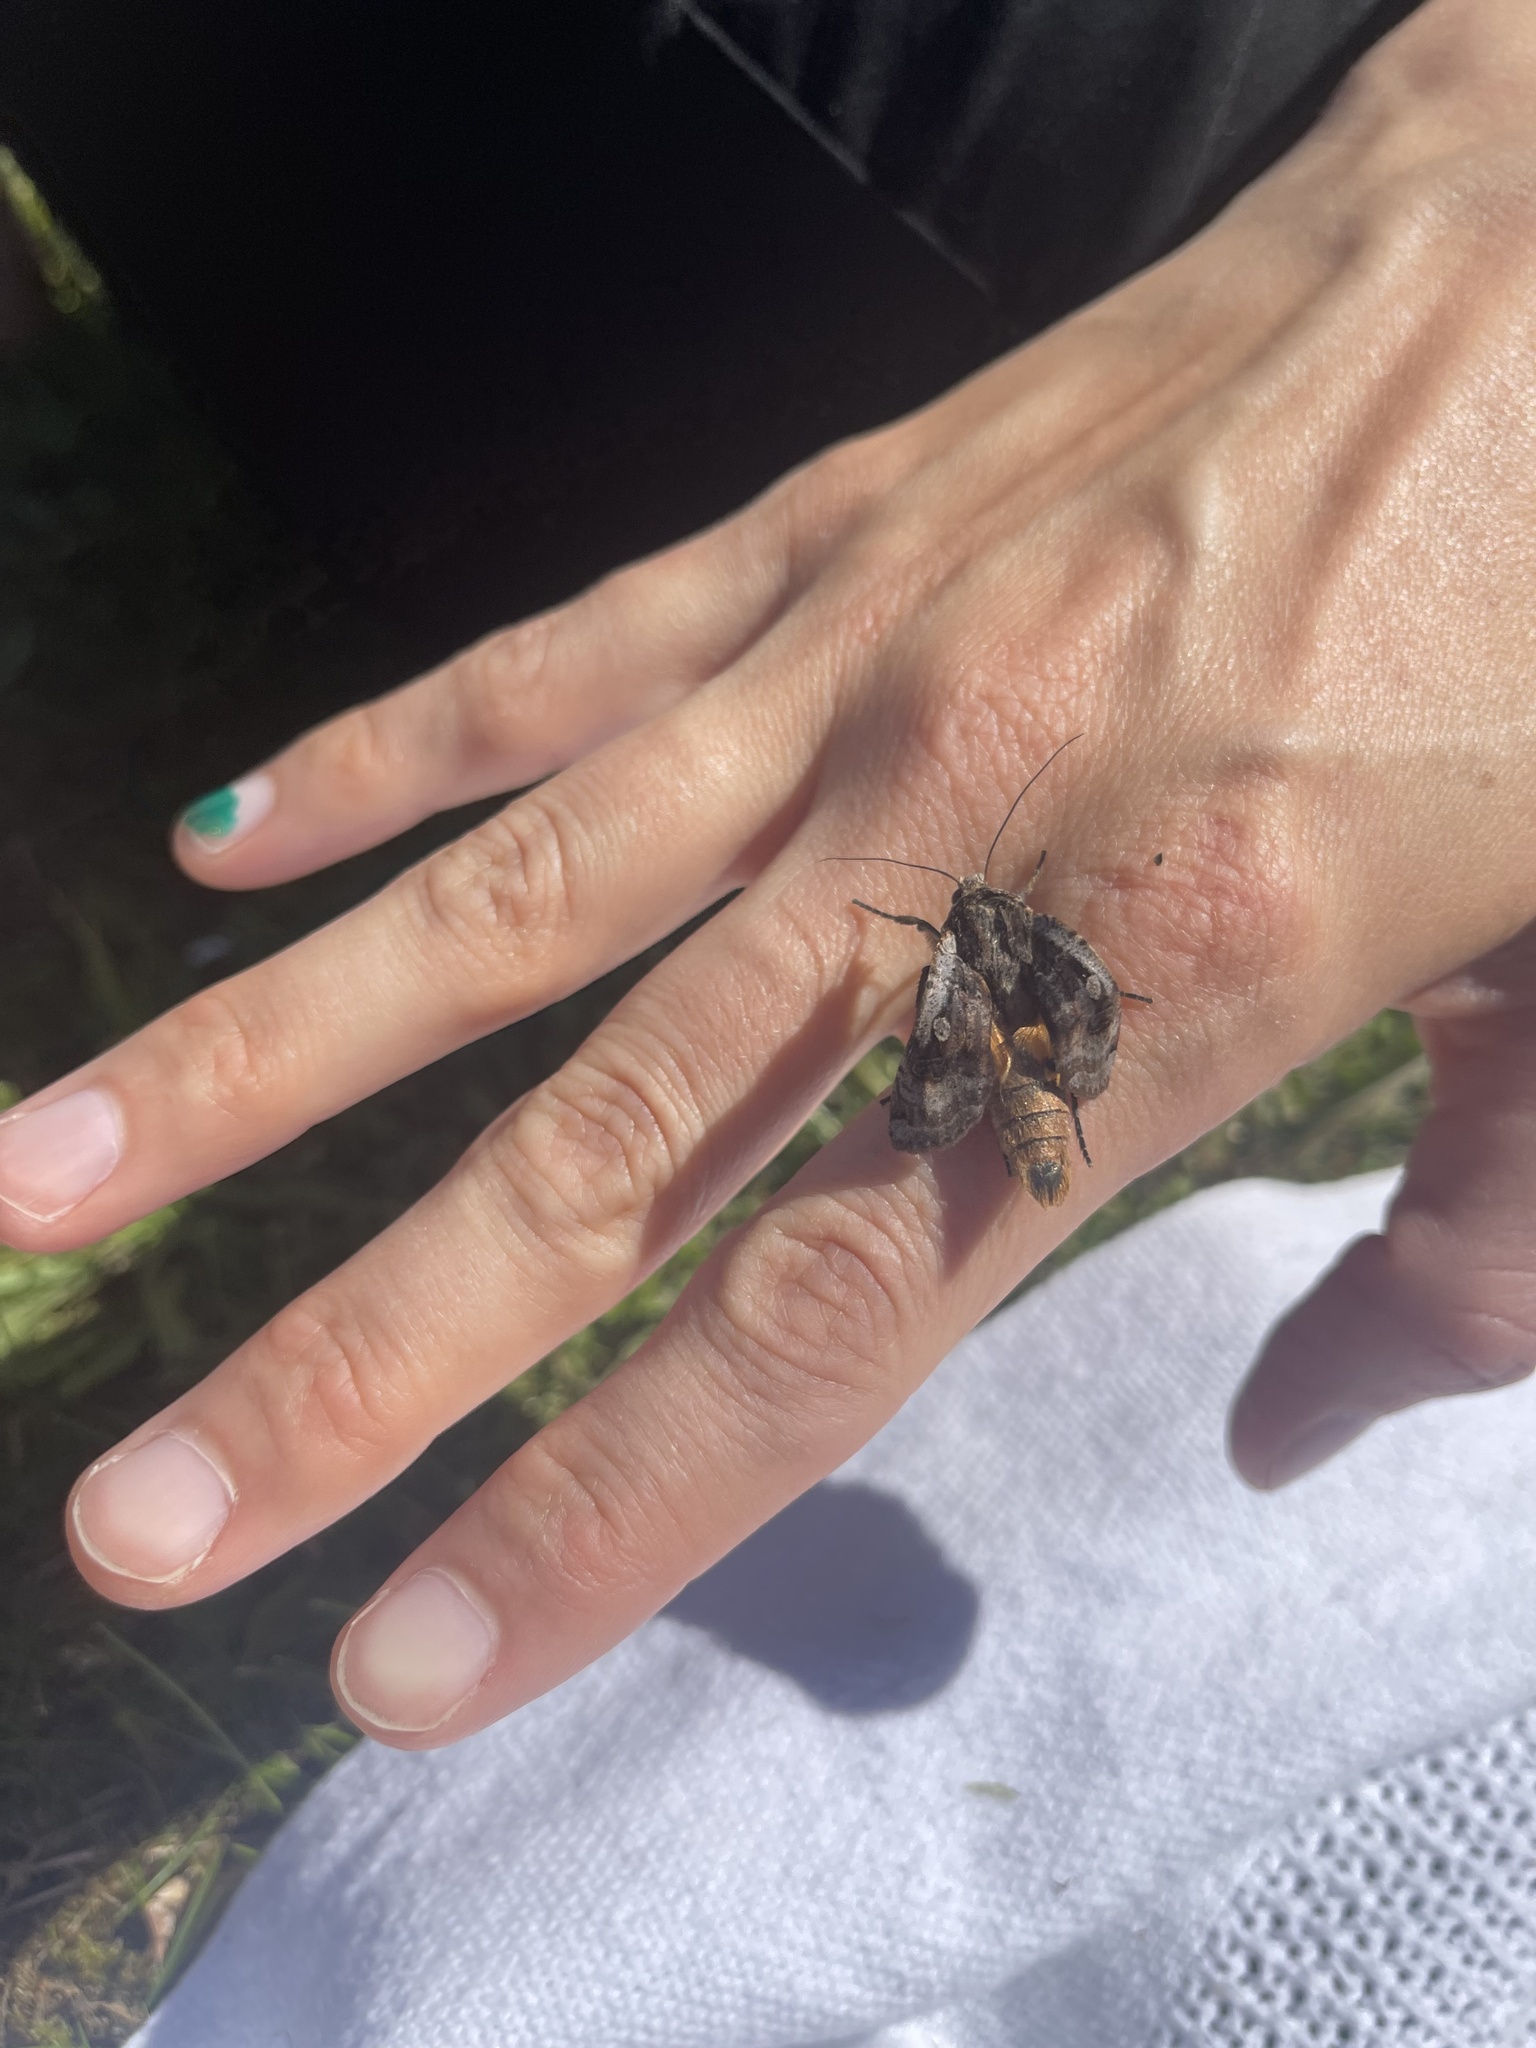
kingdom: Animalia
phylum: Arthropoda
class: Insecta
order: Lepidoptera
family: Noctuidae
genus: Noctua
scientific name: Noctua pronuba
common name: Large yellow underwing
